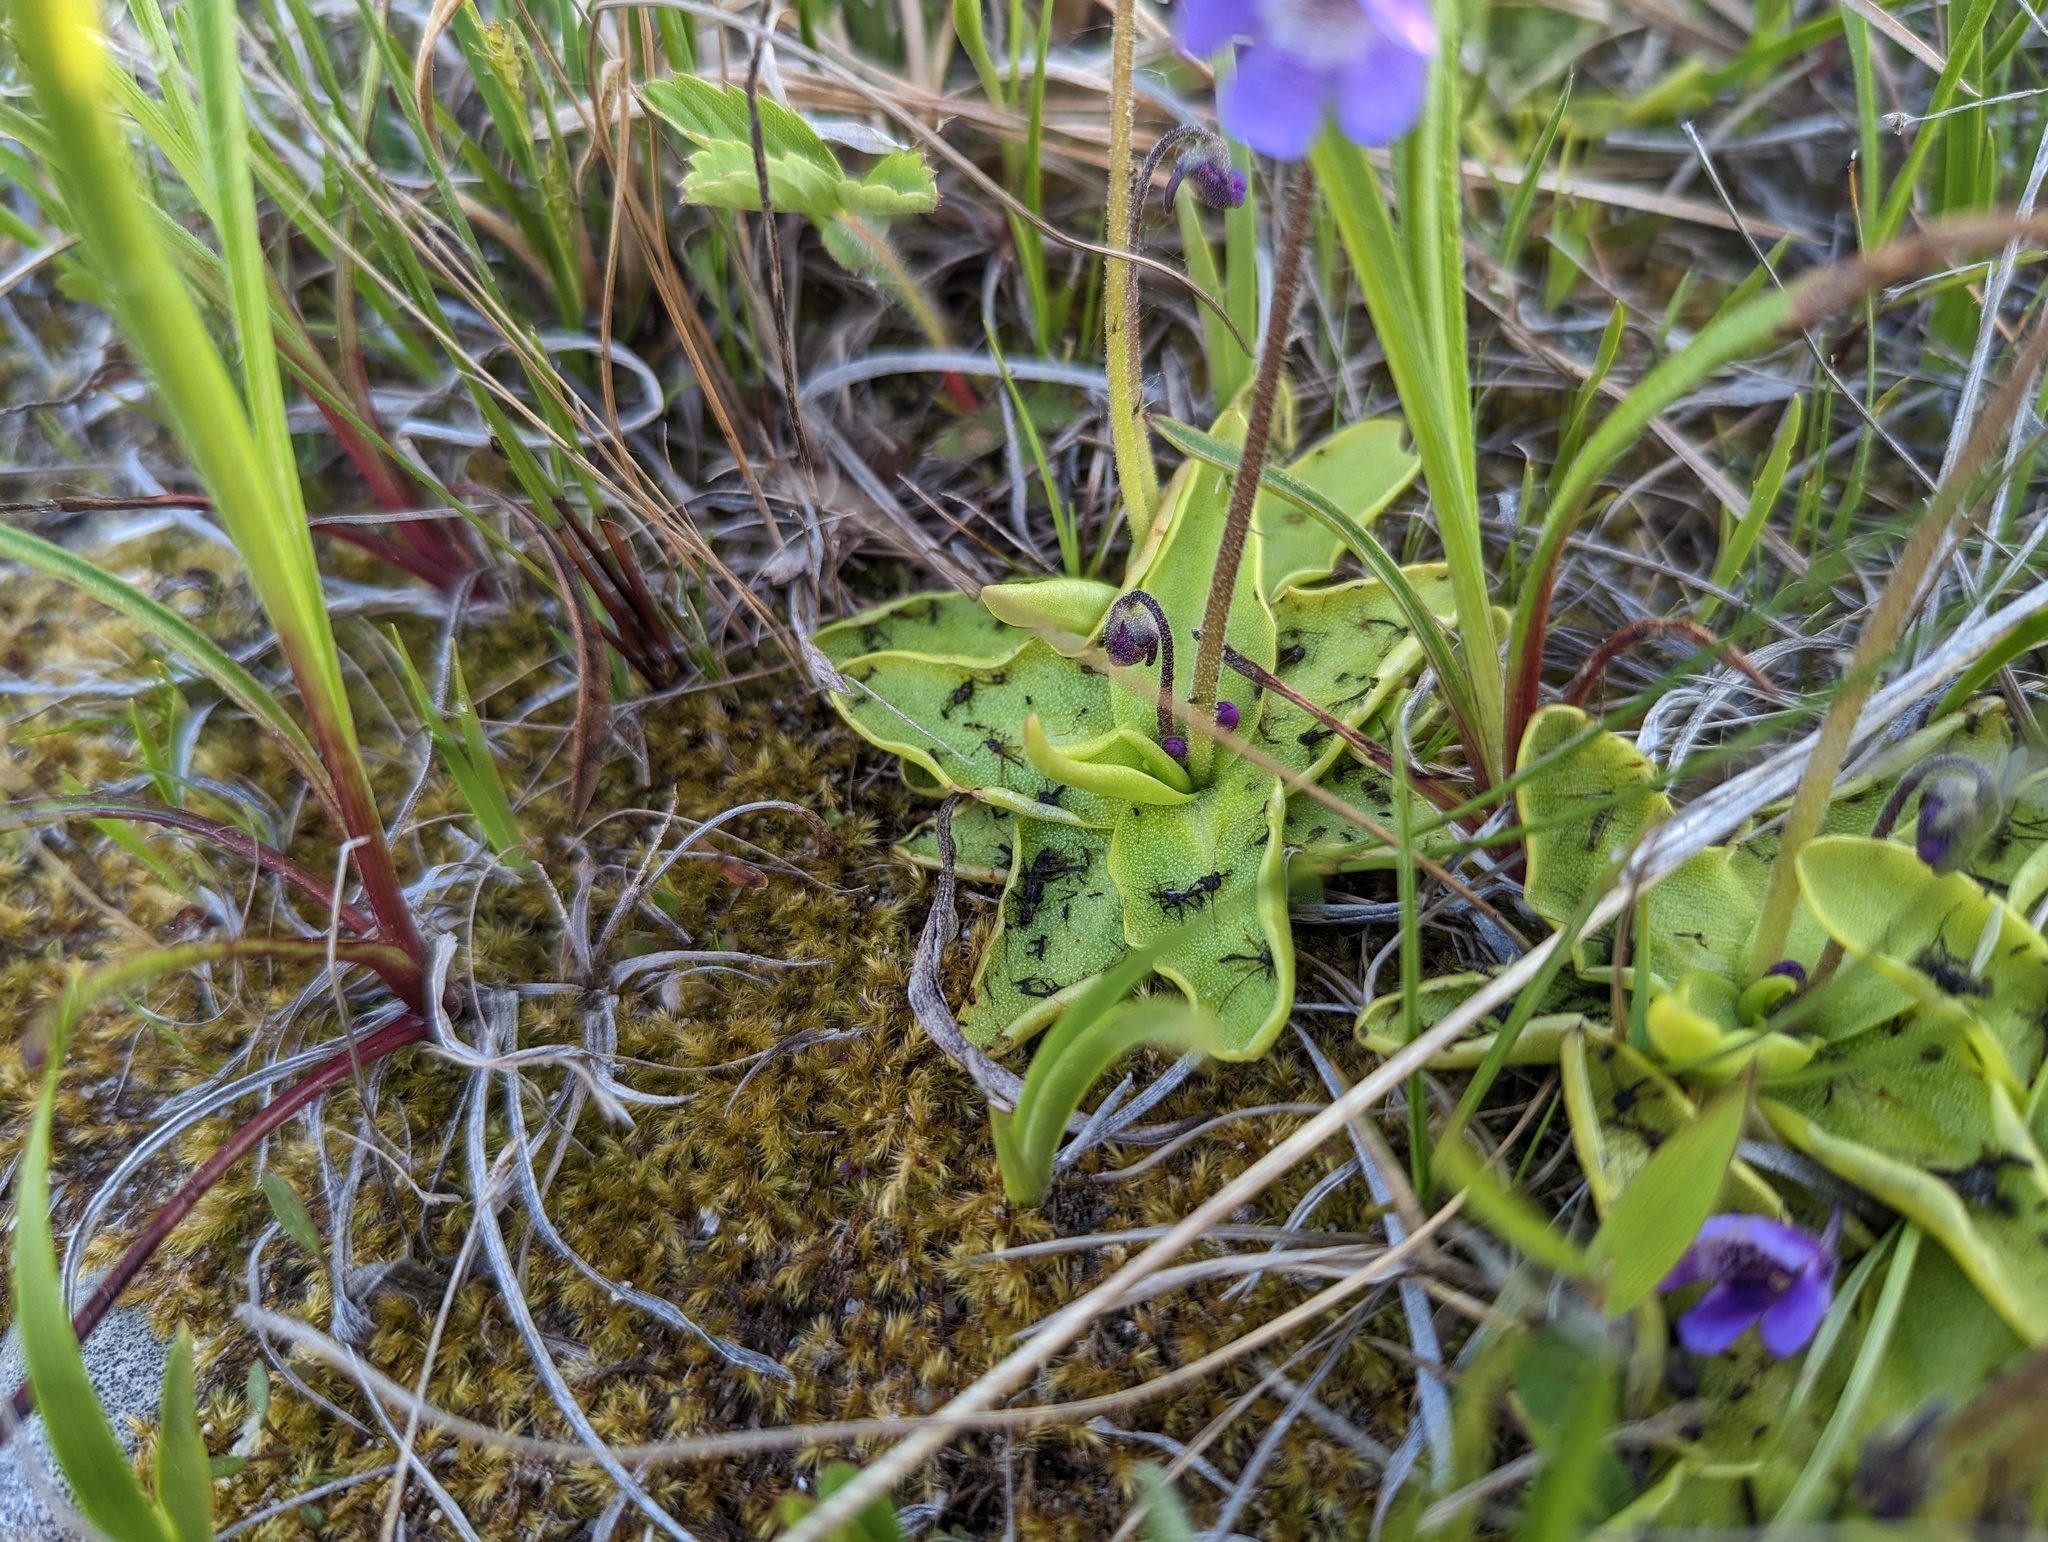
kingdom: Plantae
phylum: Tracheophyta
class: Magnoliopsida
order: Lamiales
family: Lentibulariaceae
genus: Pinguicula
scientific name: Pinguicula vulgaris
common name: Common butterwort
